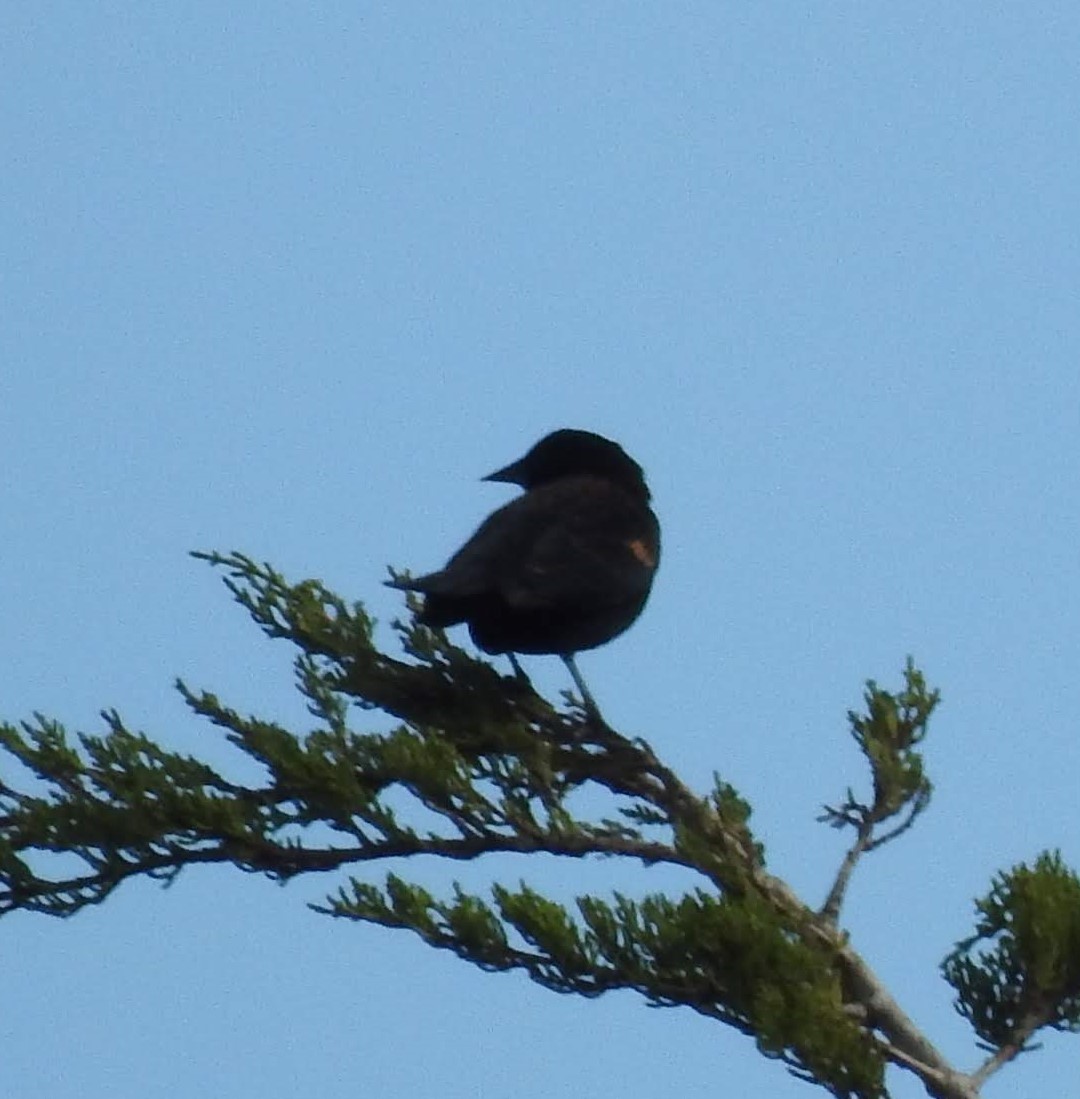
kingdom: Animalia
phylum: Chordata
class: Aves
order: Passeriformes
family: Icteridae
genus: Agelaius
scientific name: Agelaius phoeniceus
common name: Red-winged blackbird
